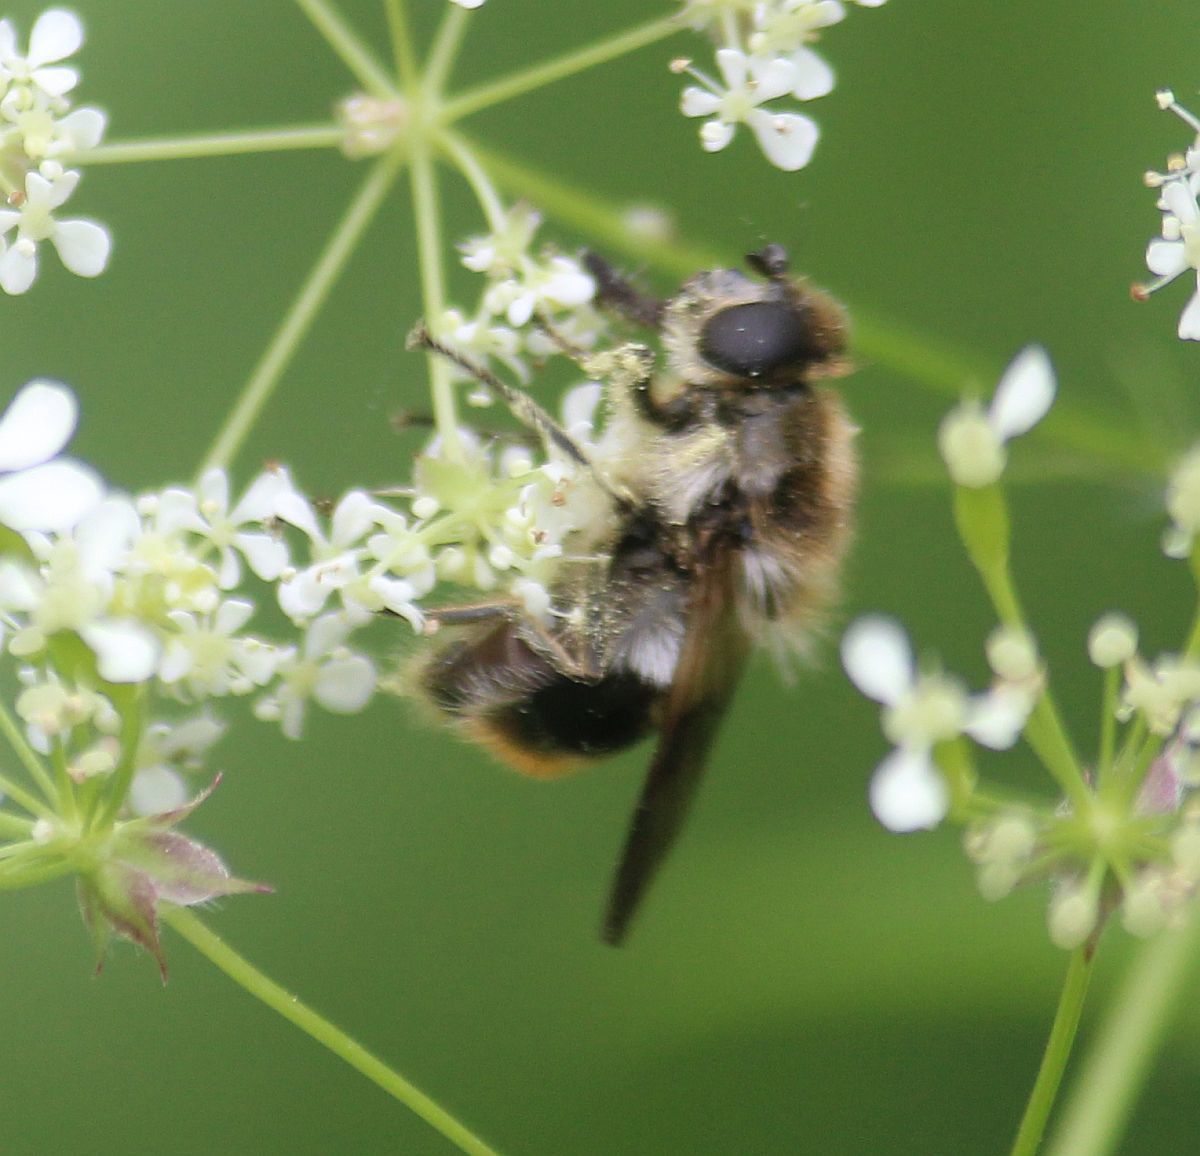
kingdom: Animalia
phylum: Arthropoda
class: Insecta
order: Diptera
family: Syrphidae
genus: Cheilosia
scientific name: Cheilosia illustrata
